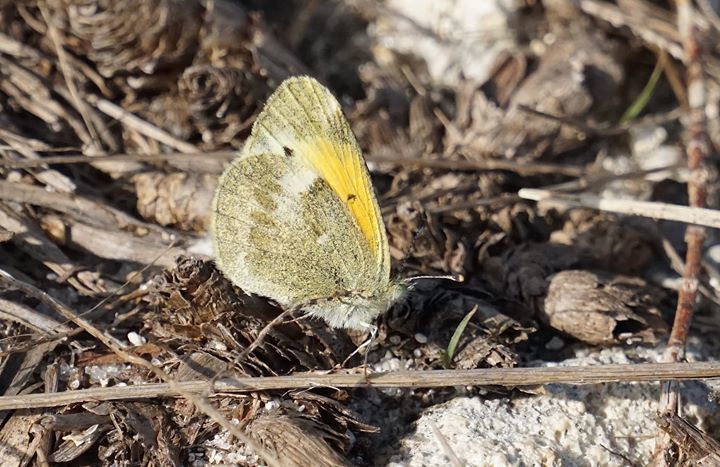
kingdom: Animalia
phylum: Arthropoda
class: Insecta
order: Lepidoptera
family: Pieridae
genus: Nathalis
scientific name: Nathalis iole
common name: Dainty sulphur
